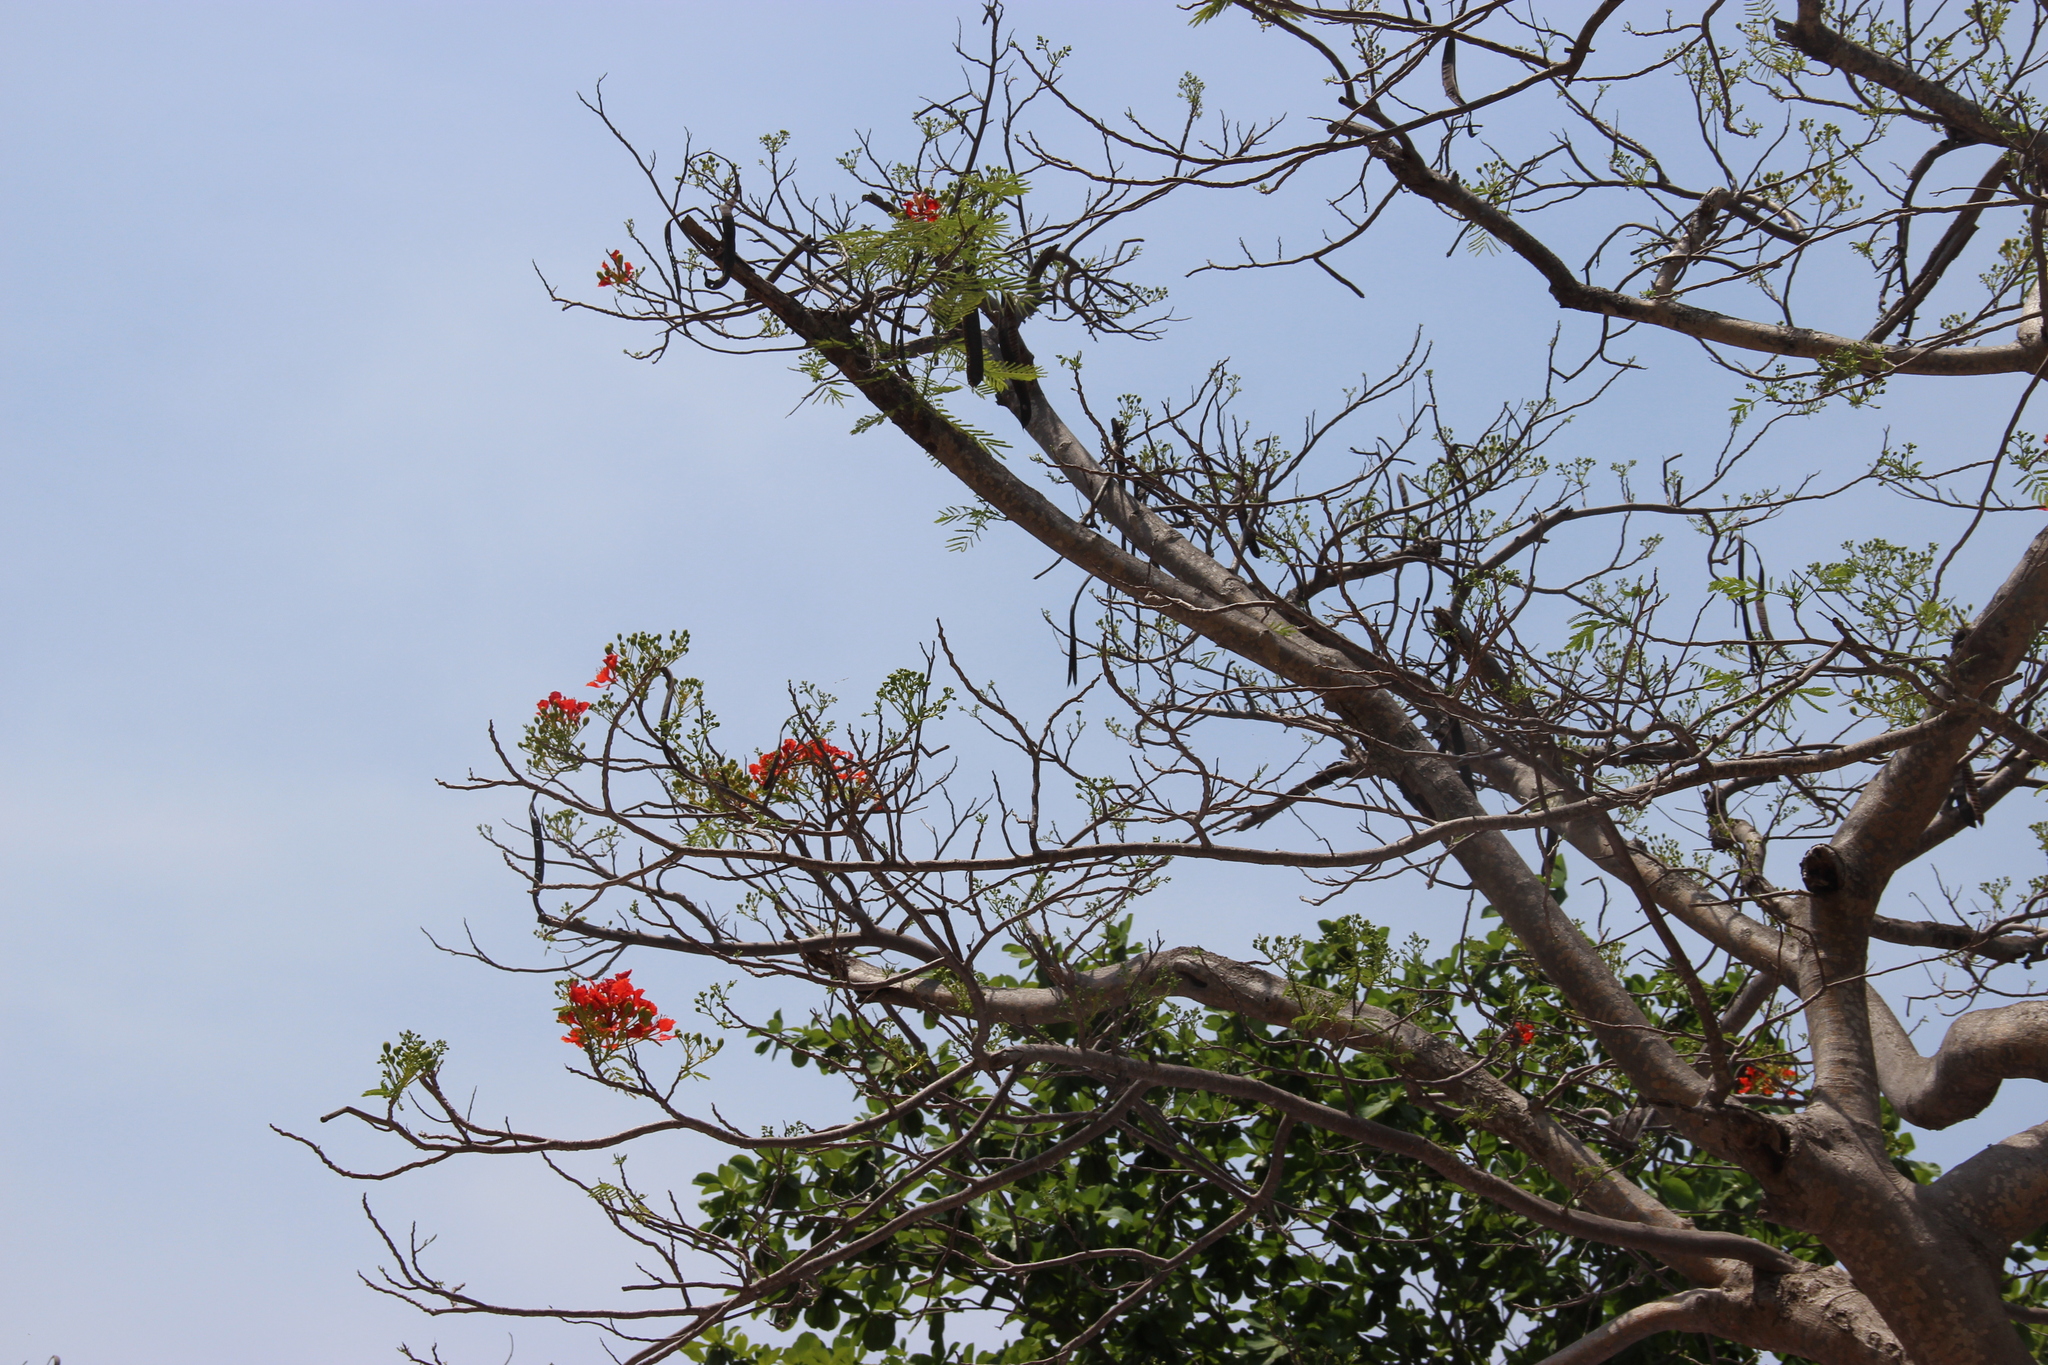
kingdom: Plantae
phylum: Tracheophyta
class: Magnoliopsida
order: Fabales
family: Fabaceae
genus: Delonix
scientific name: Delonix regia
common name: Royal poinciana
